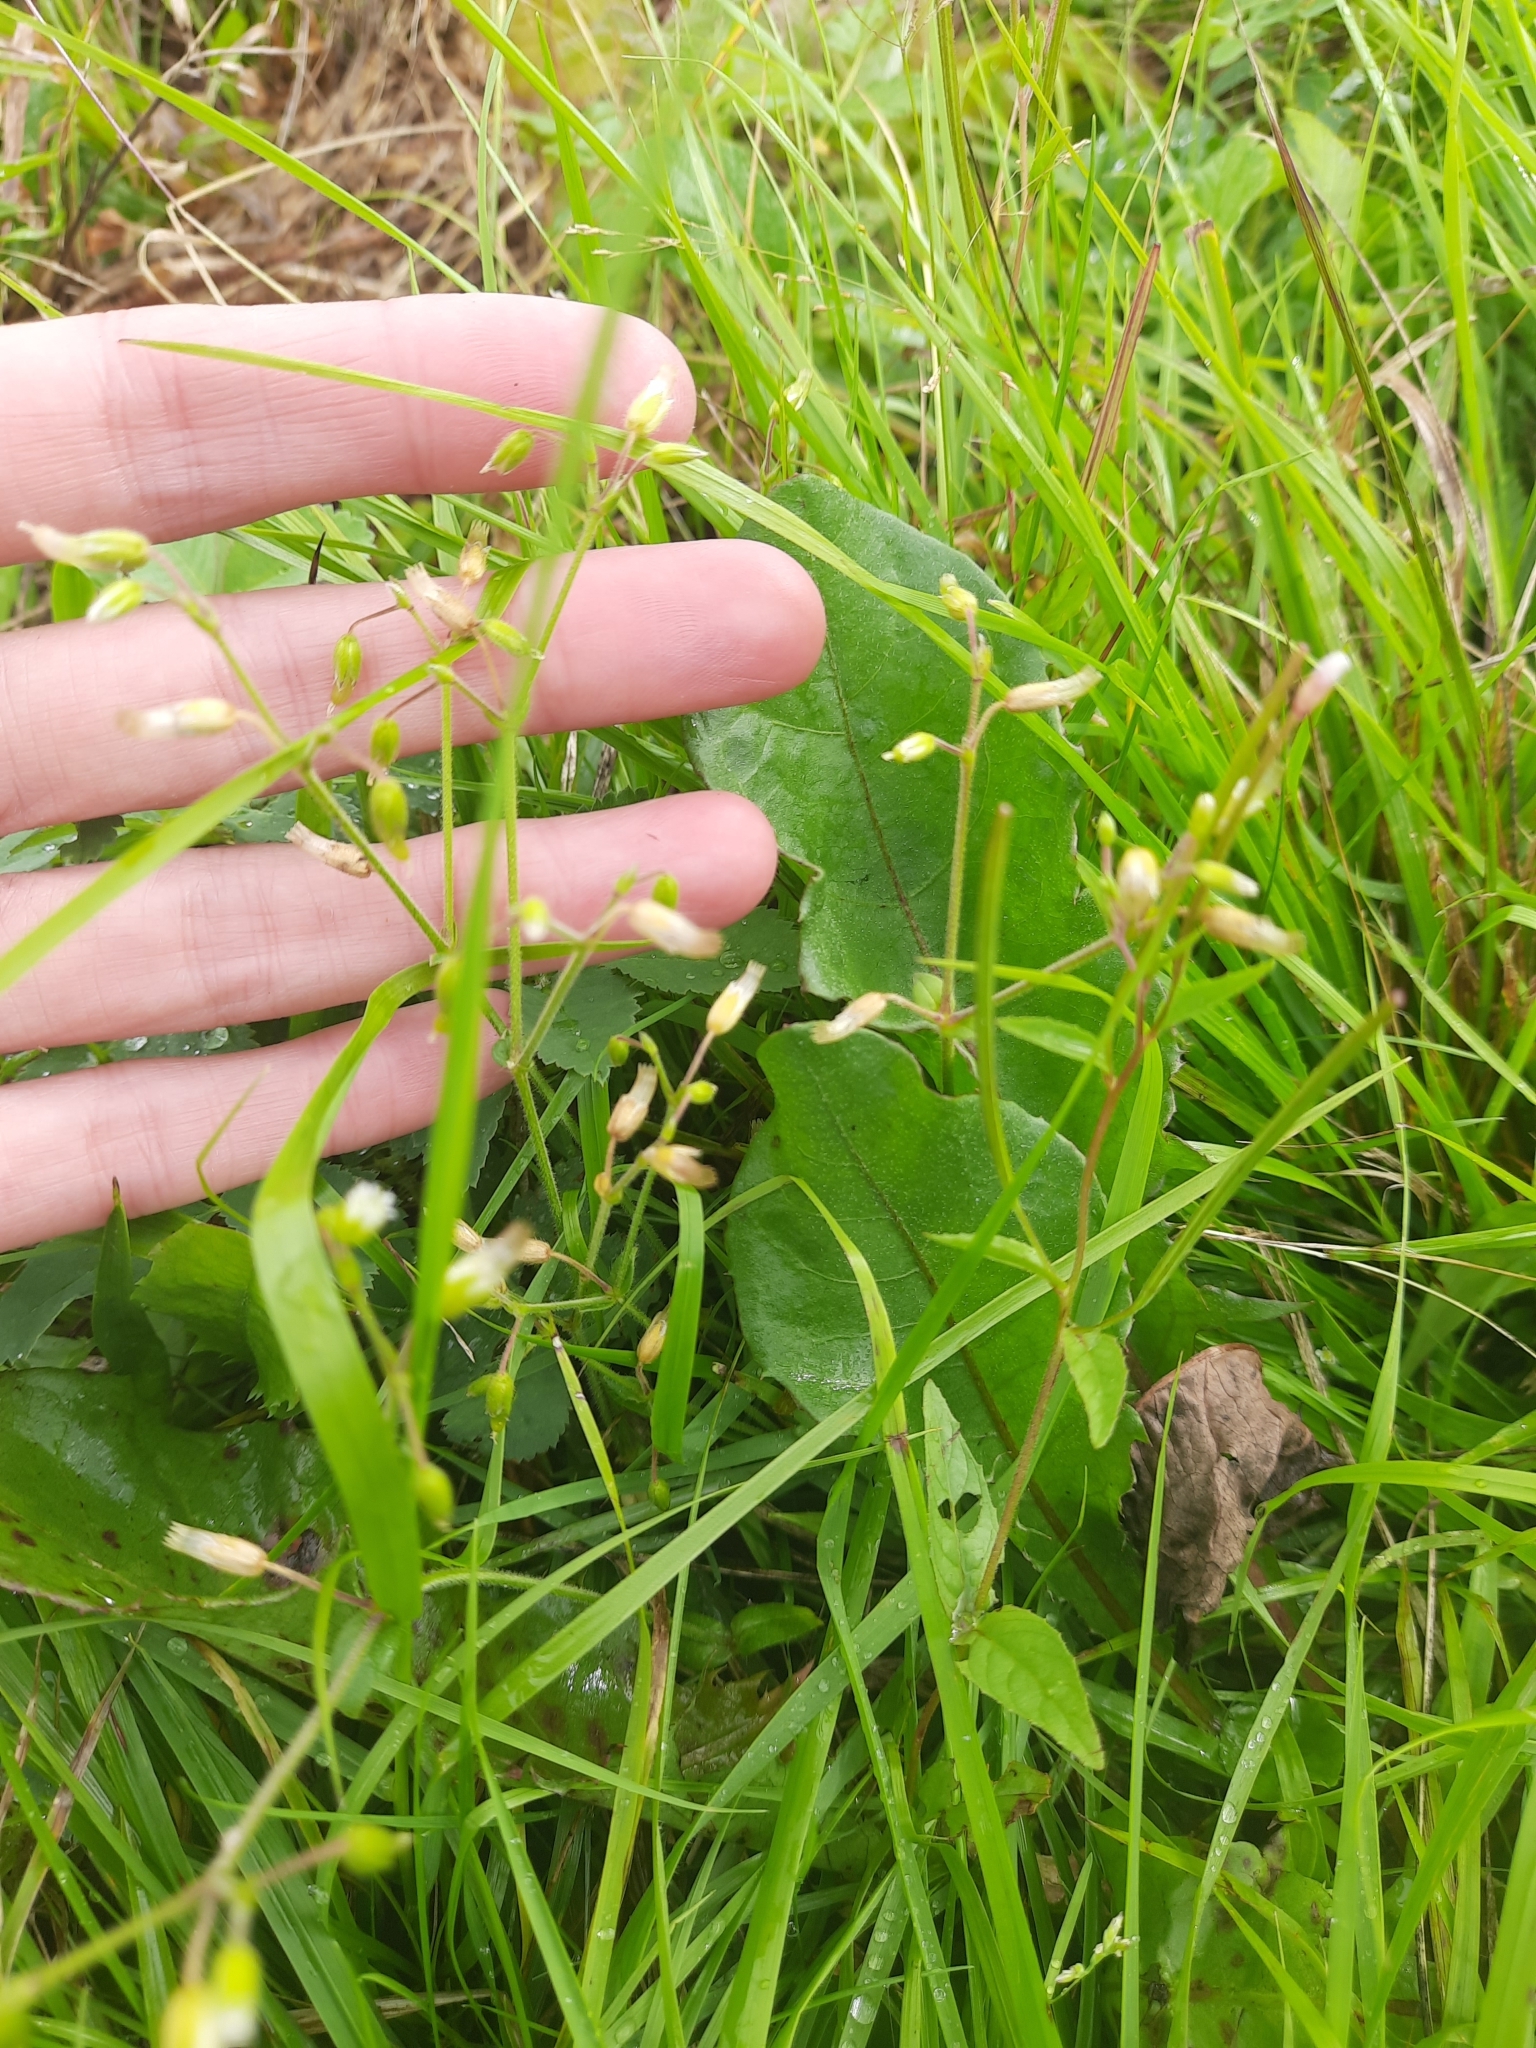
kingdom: Plantae
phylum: Tracheophyta
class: Magnoliopsida
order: Caryophyllales
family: Caryophyllaceae
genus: Cerastium
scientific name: Cerastium holosteoides
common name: Big chickweed
